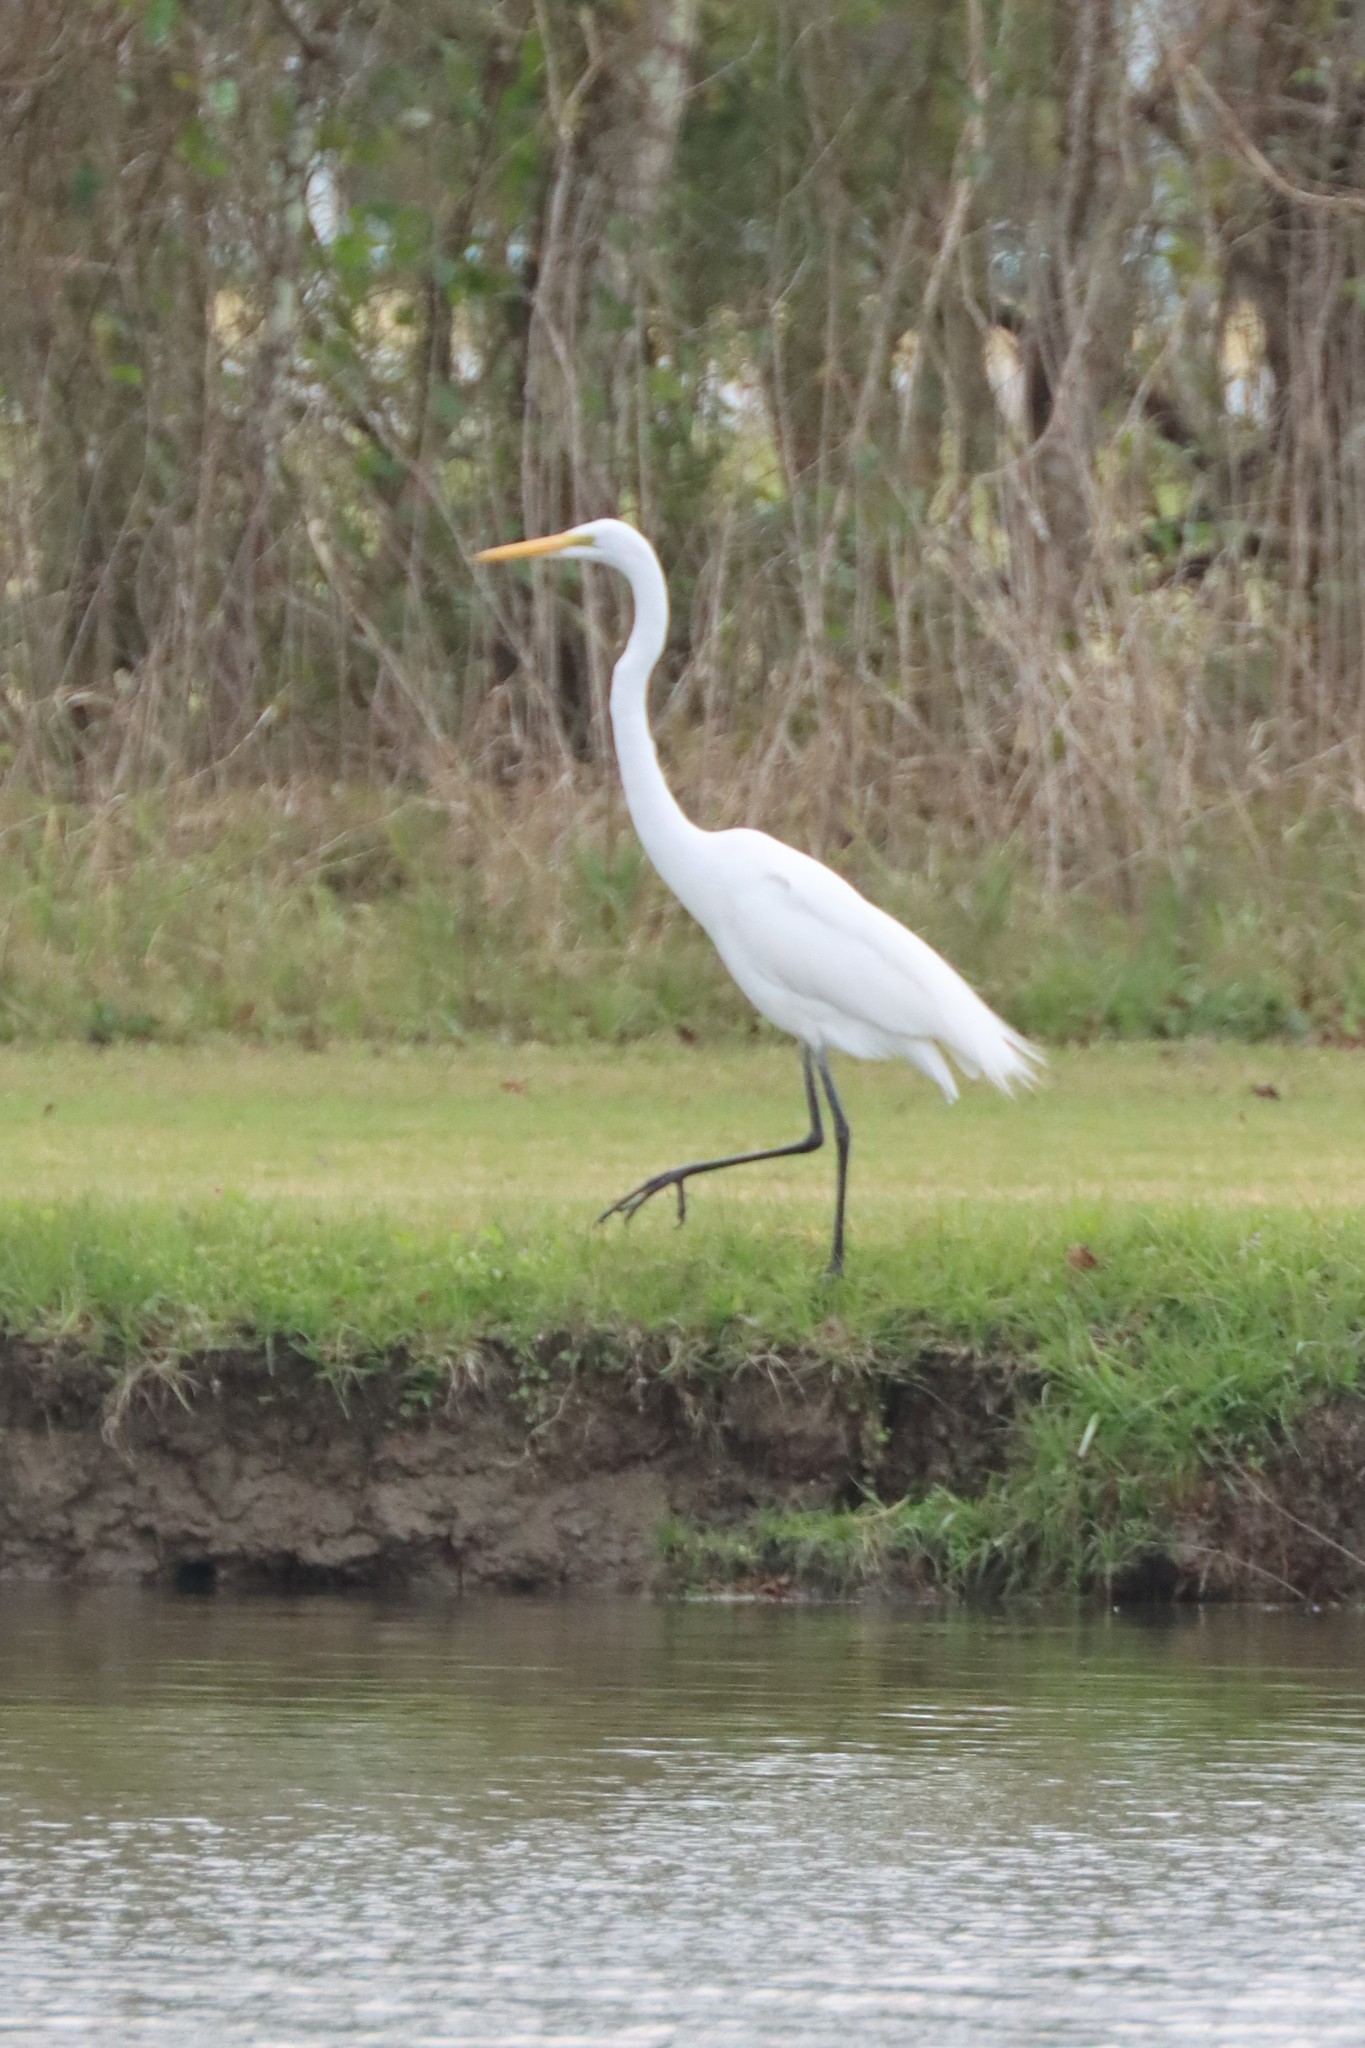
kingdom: Animalia
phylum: Chordata
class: Aves
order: Pelecaniformes
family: Ardeidae
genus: Ardea
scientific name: Ardea alba
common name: Great egret
